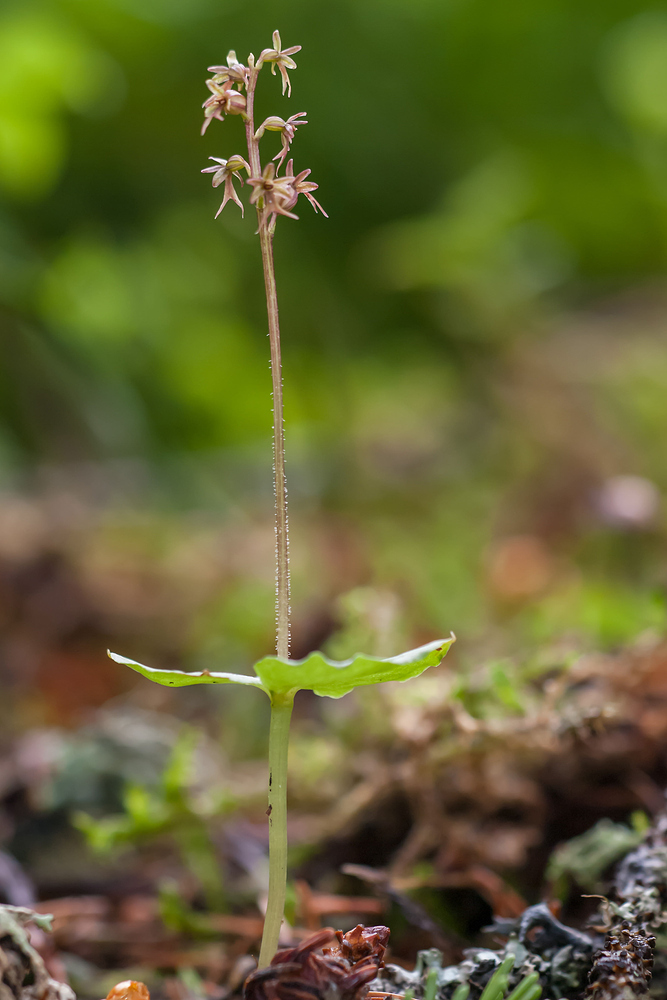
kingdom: Plantae
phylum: Tracheophyta
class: Liliopsida
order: Asparagales
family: Orchidaceae
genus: Neottia
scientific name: Neottia cordata
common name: Lesser twayblade
